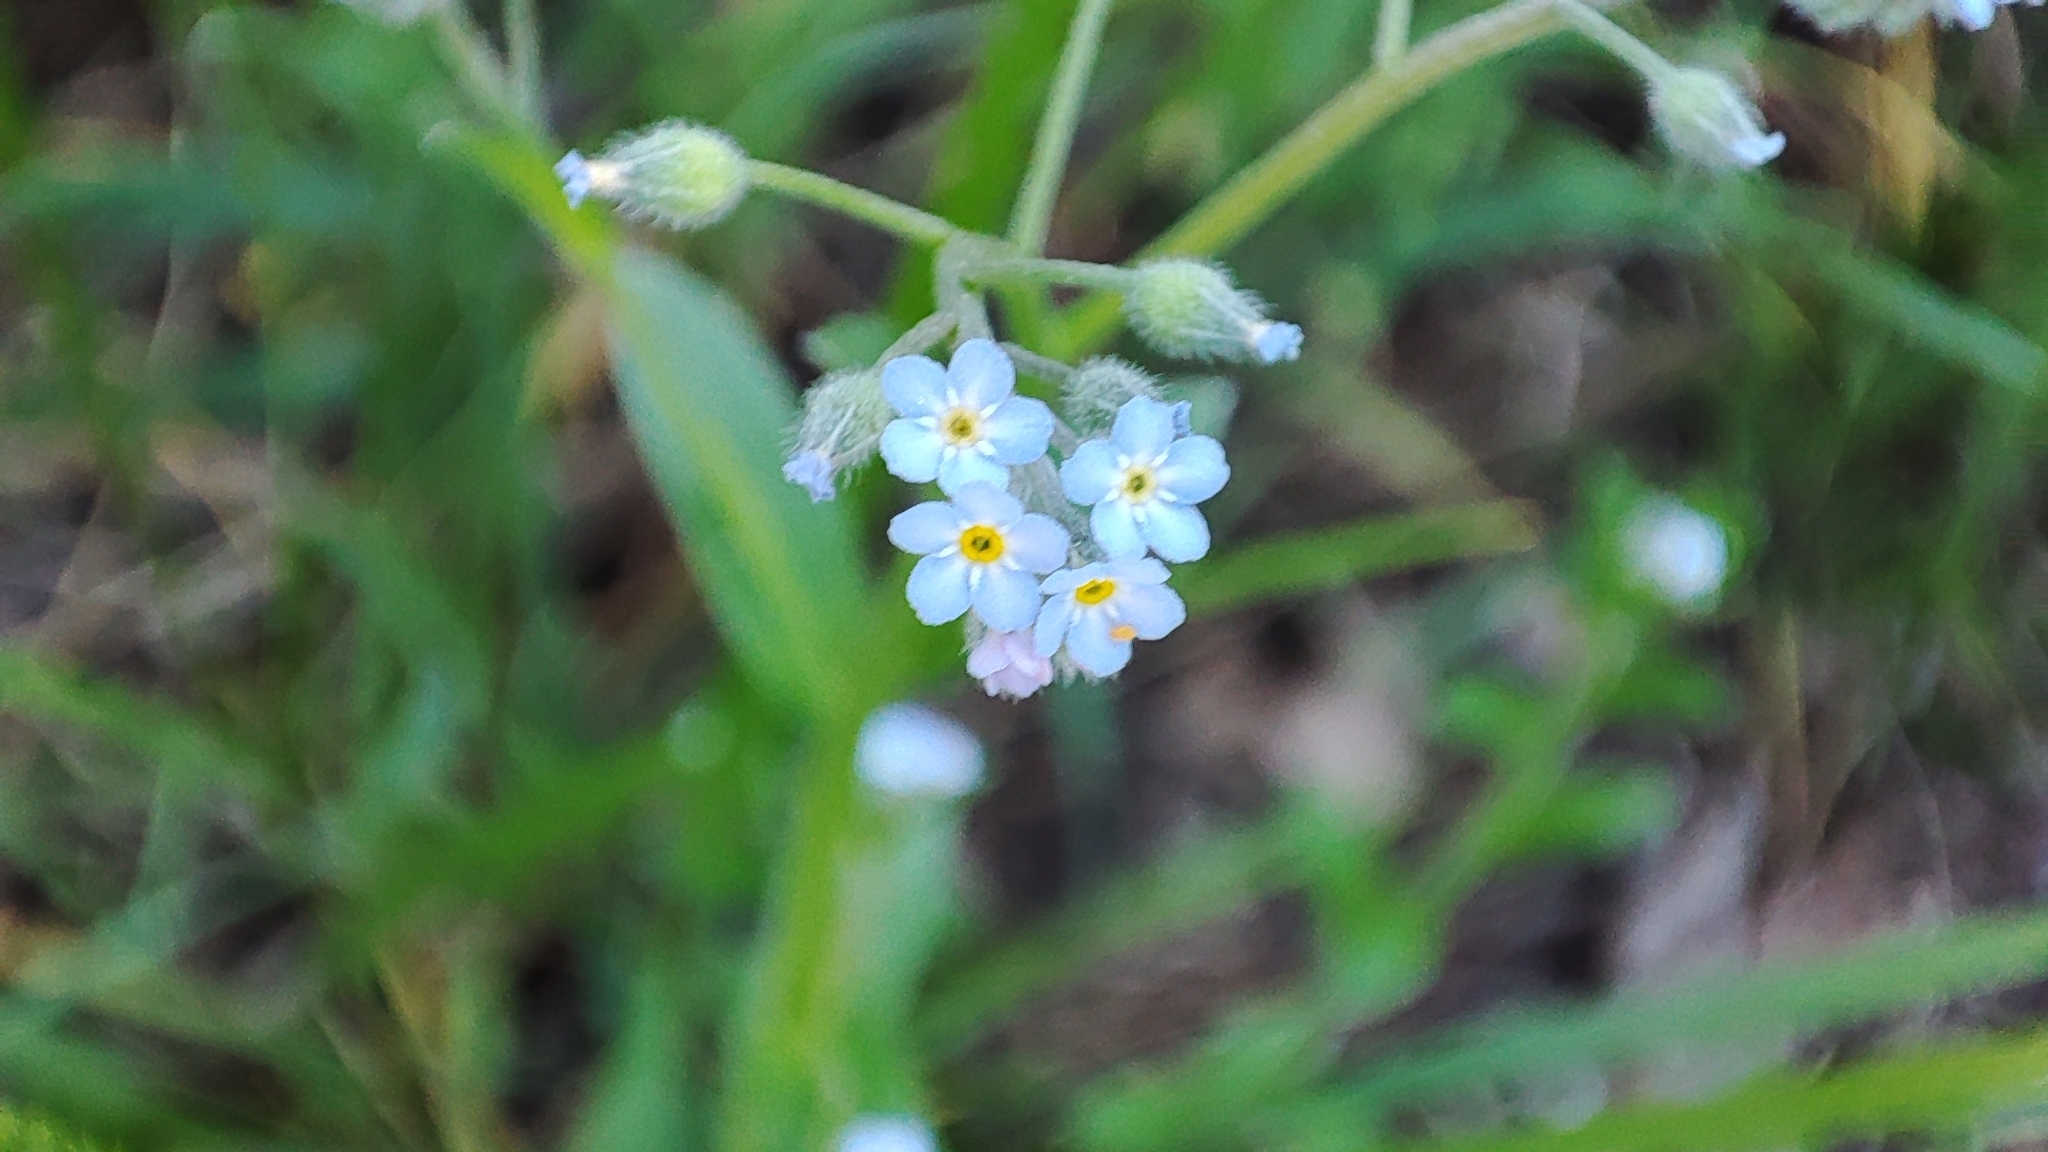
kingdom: Plantae
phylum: Tracheophyta
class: Magnoliopsida
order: Boraginales
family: Boraginaceae
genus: Myosotis
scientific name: Myosotis arvensis
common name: Field forget-me-not
